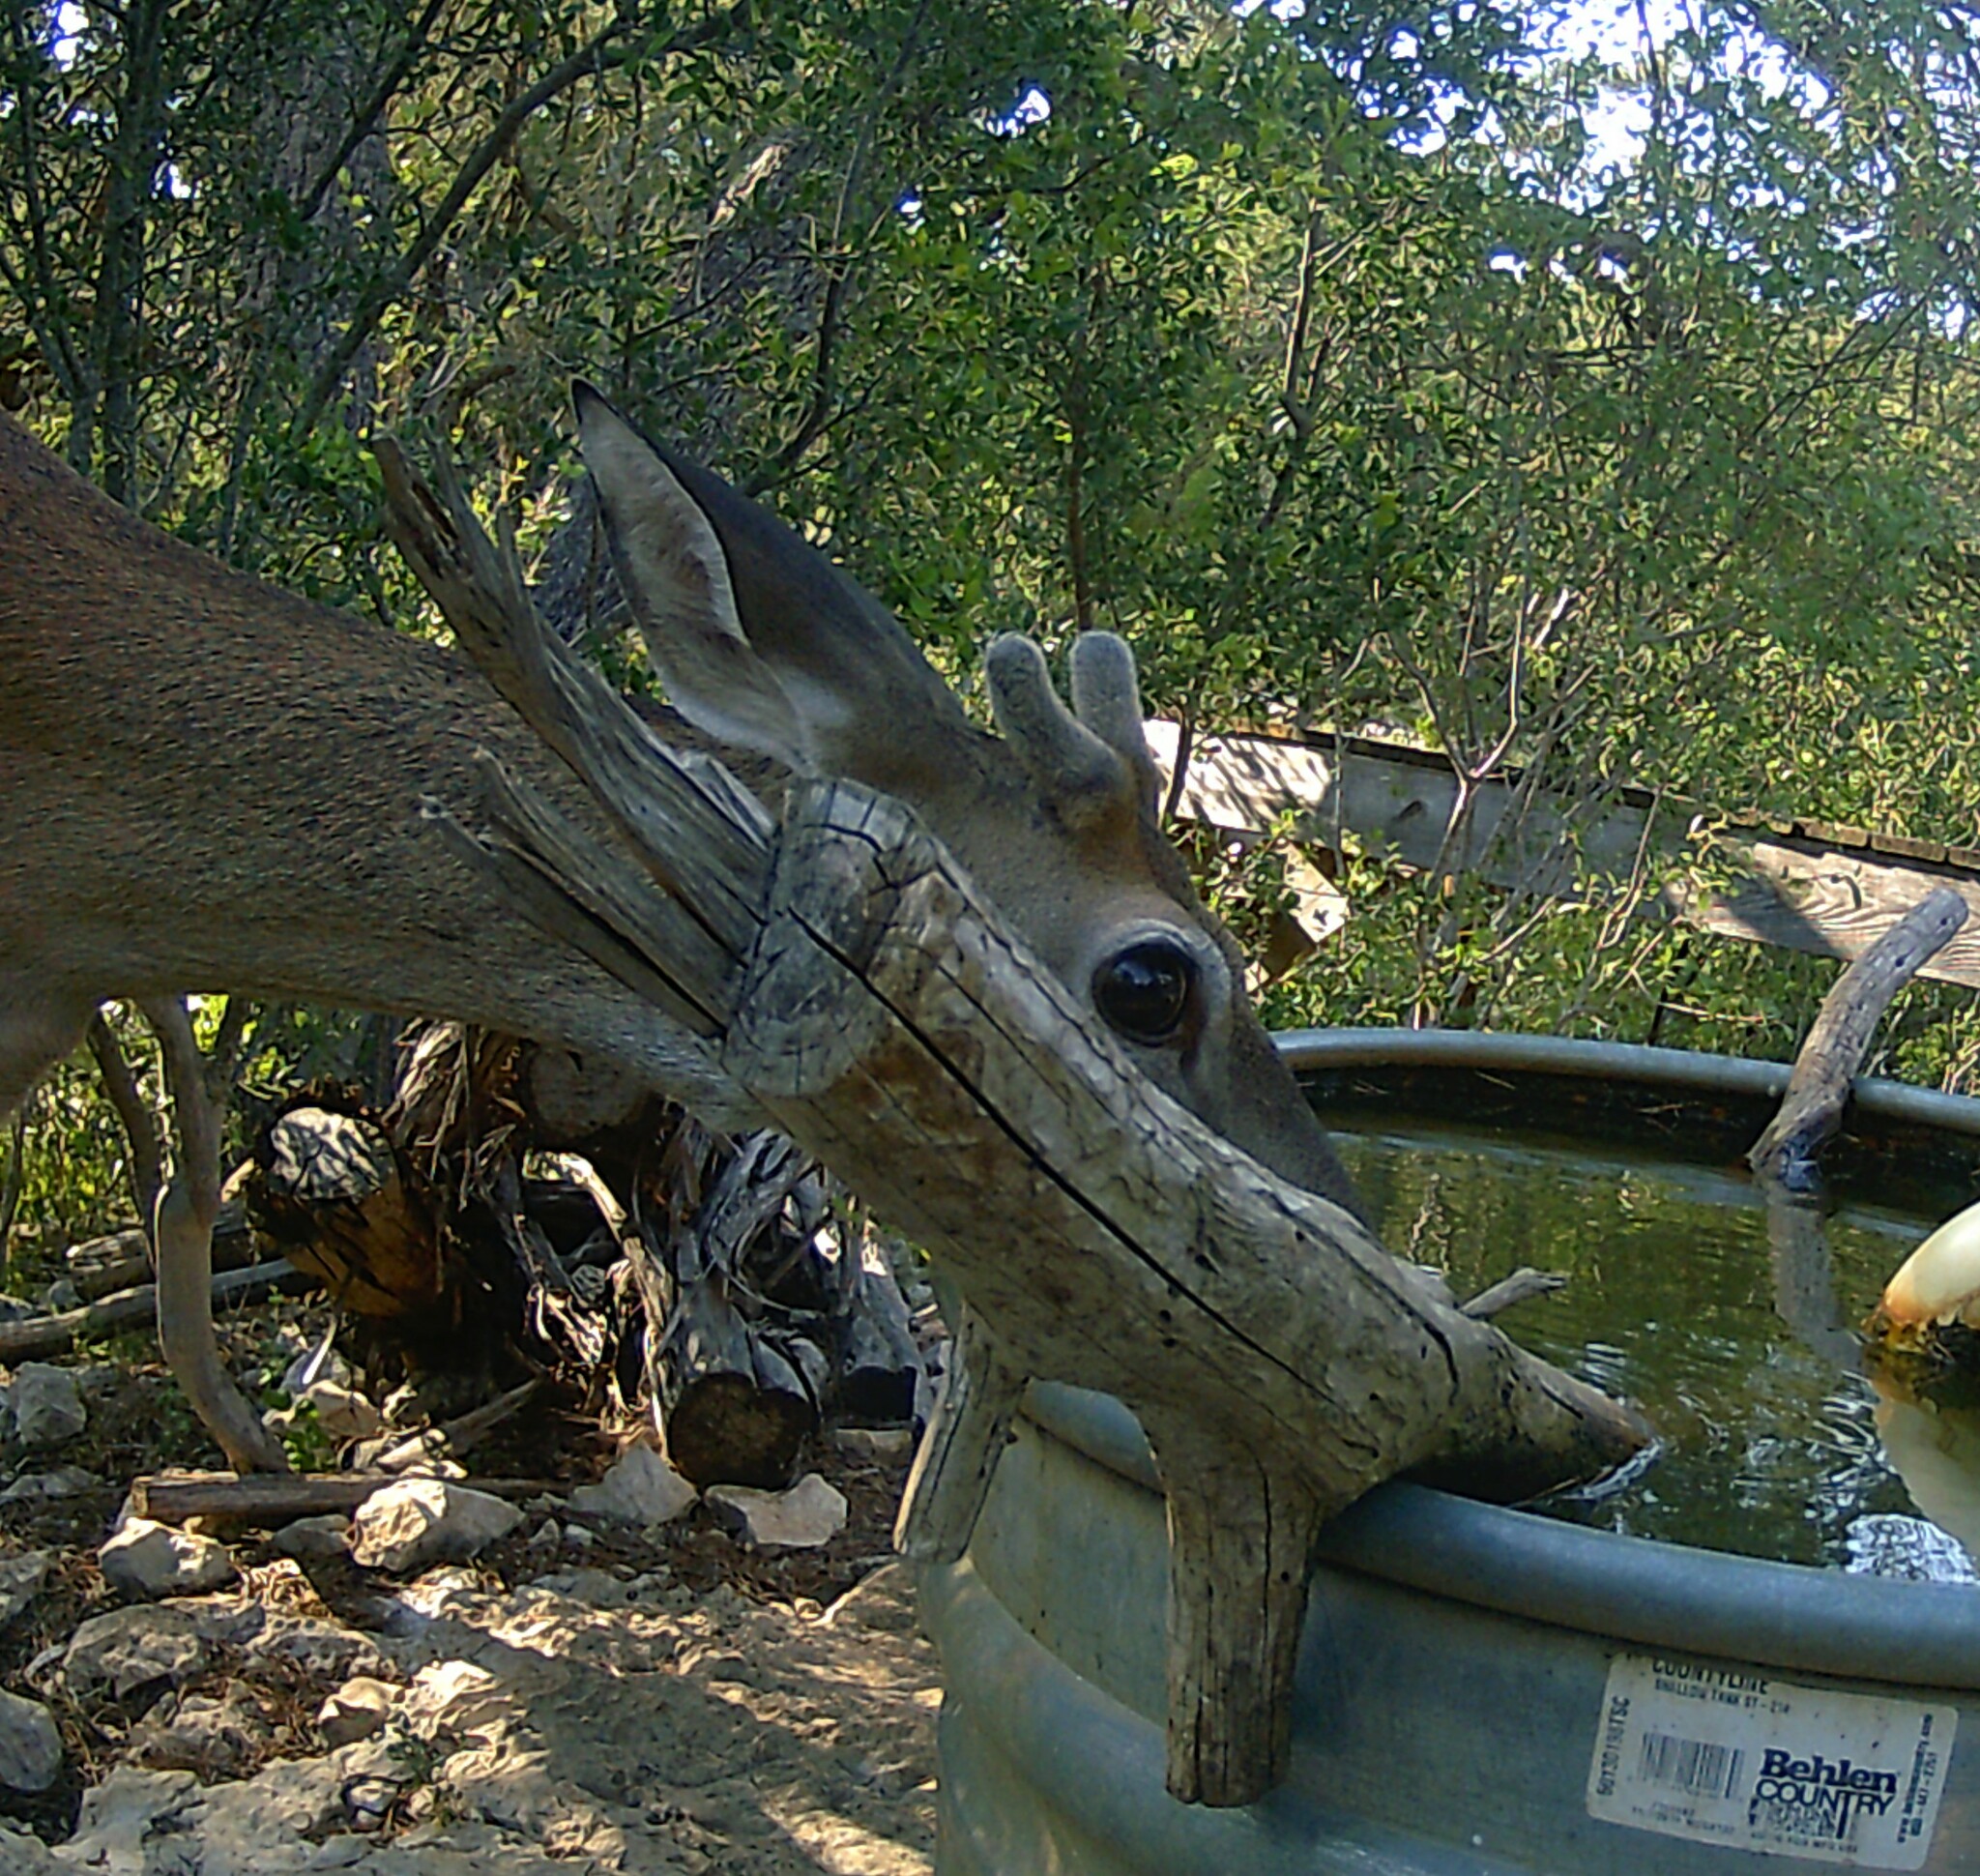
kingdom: Animalia
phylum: Chordata
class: Mammalia
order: Artiodactyla
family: Cervidae
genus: Odocoileus
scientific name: Odocoileus virginianus
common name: White-tailed deer
